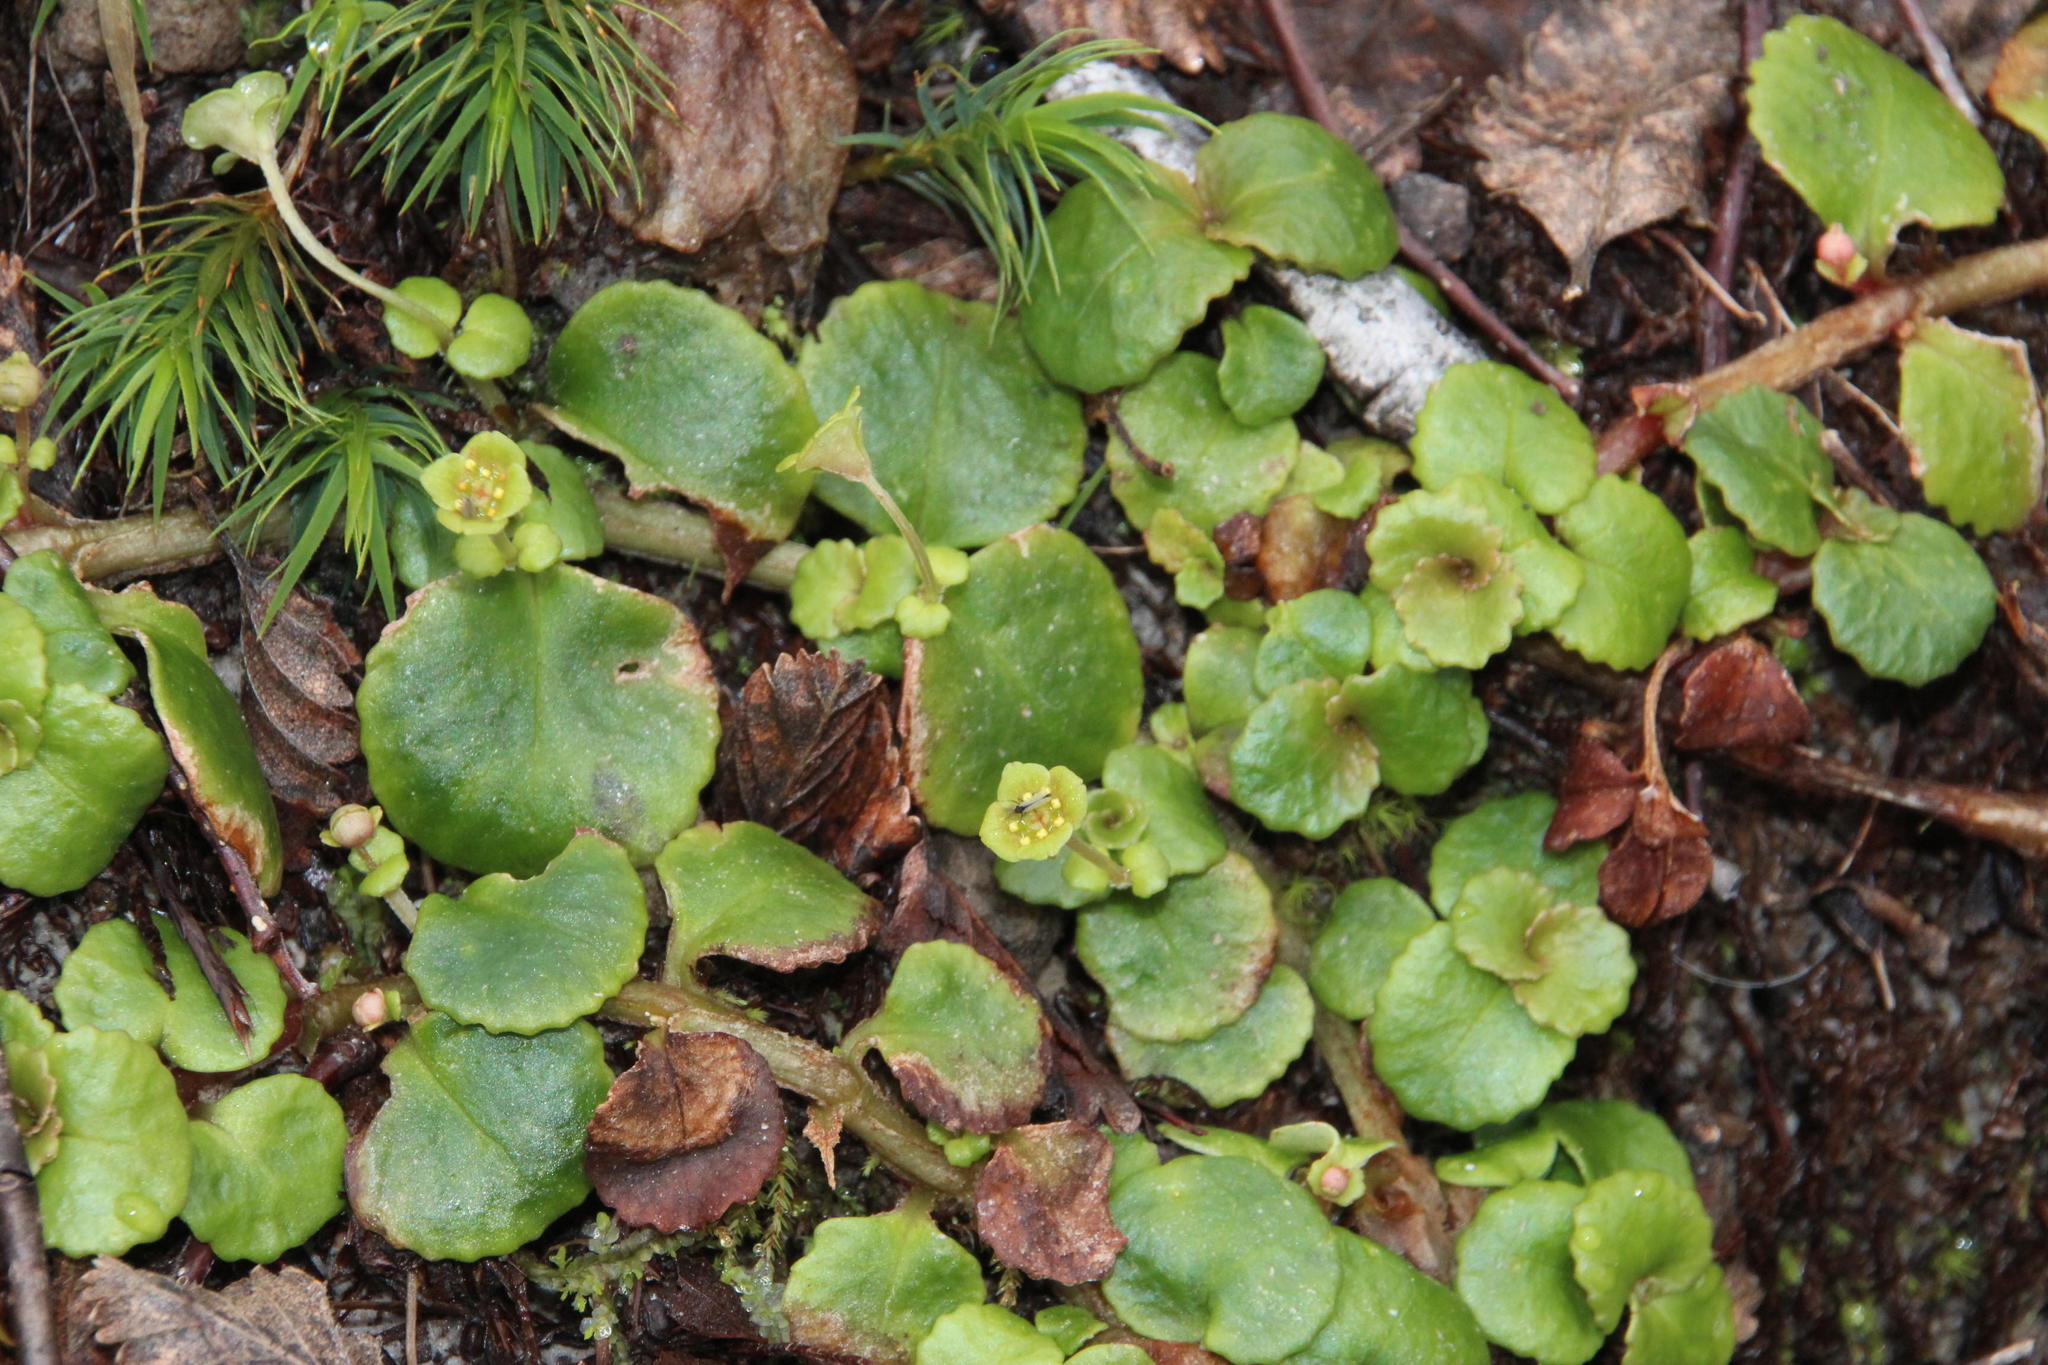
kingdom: Plantae
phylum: Tracheophyta
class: Magnoliopsida
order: Saxifragales
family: Saxifragaceae
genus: Chrysosplenium
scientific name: Chrysosplenium valdivicum
